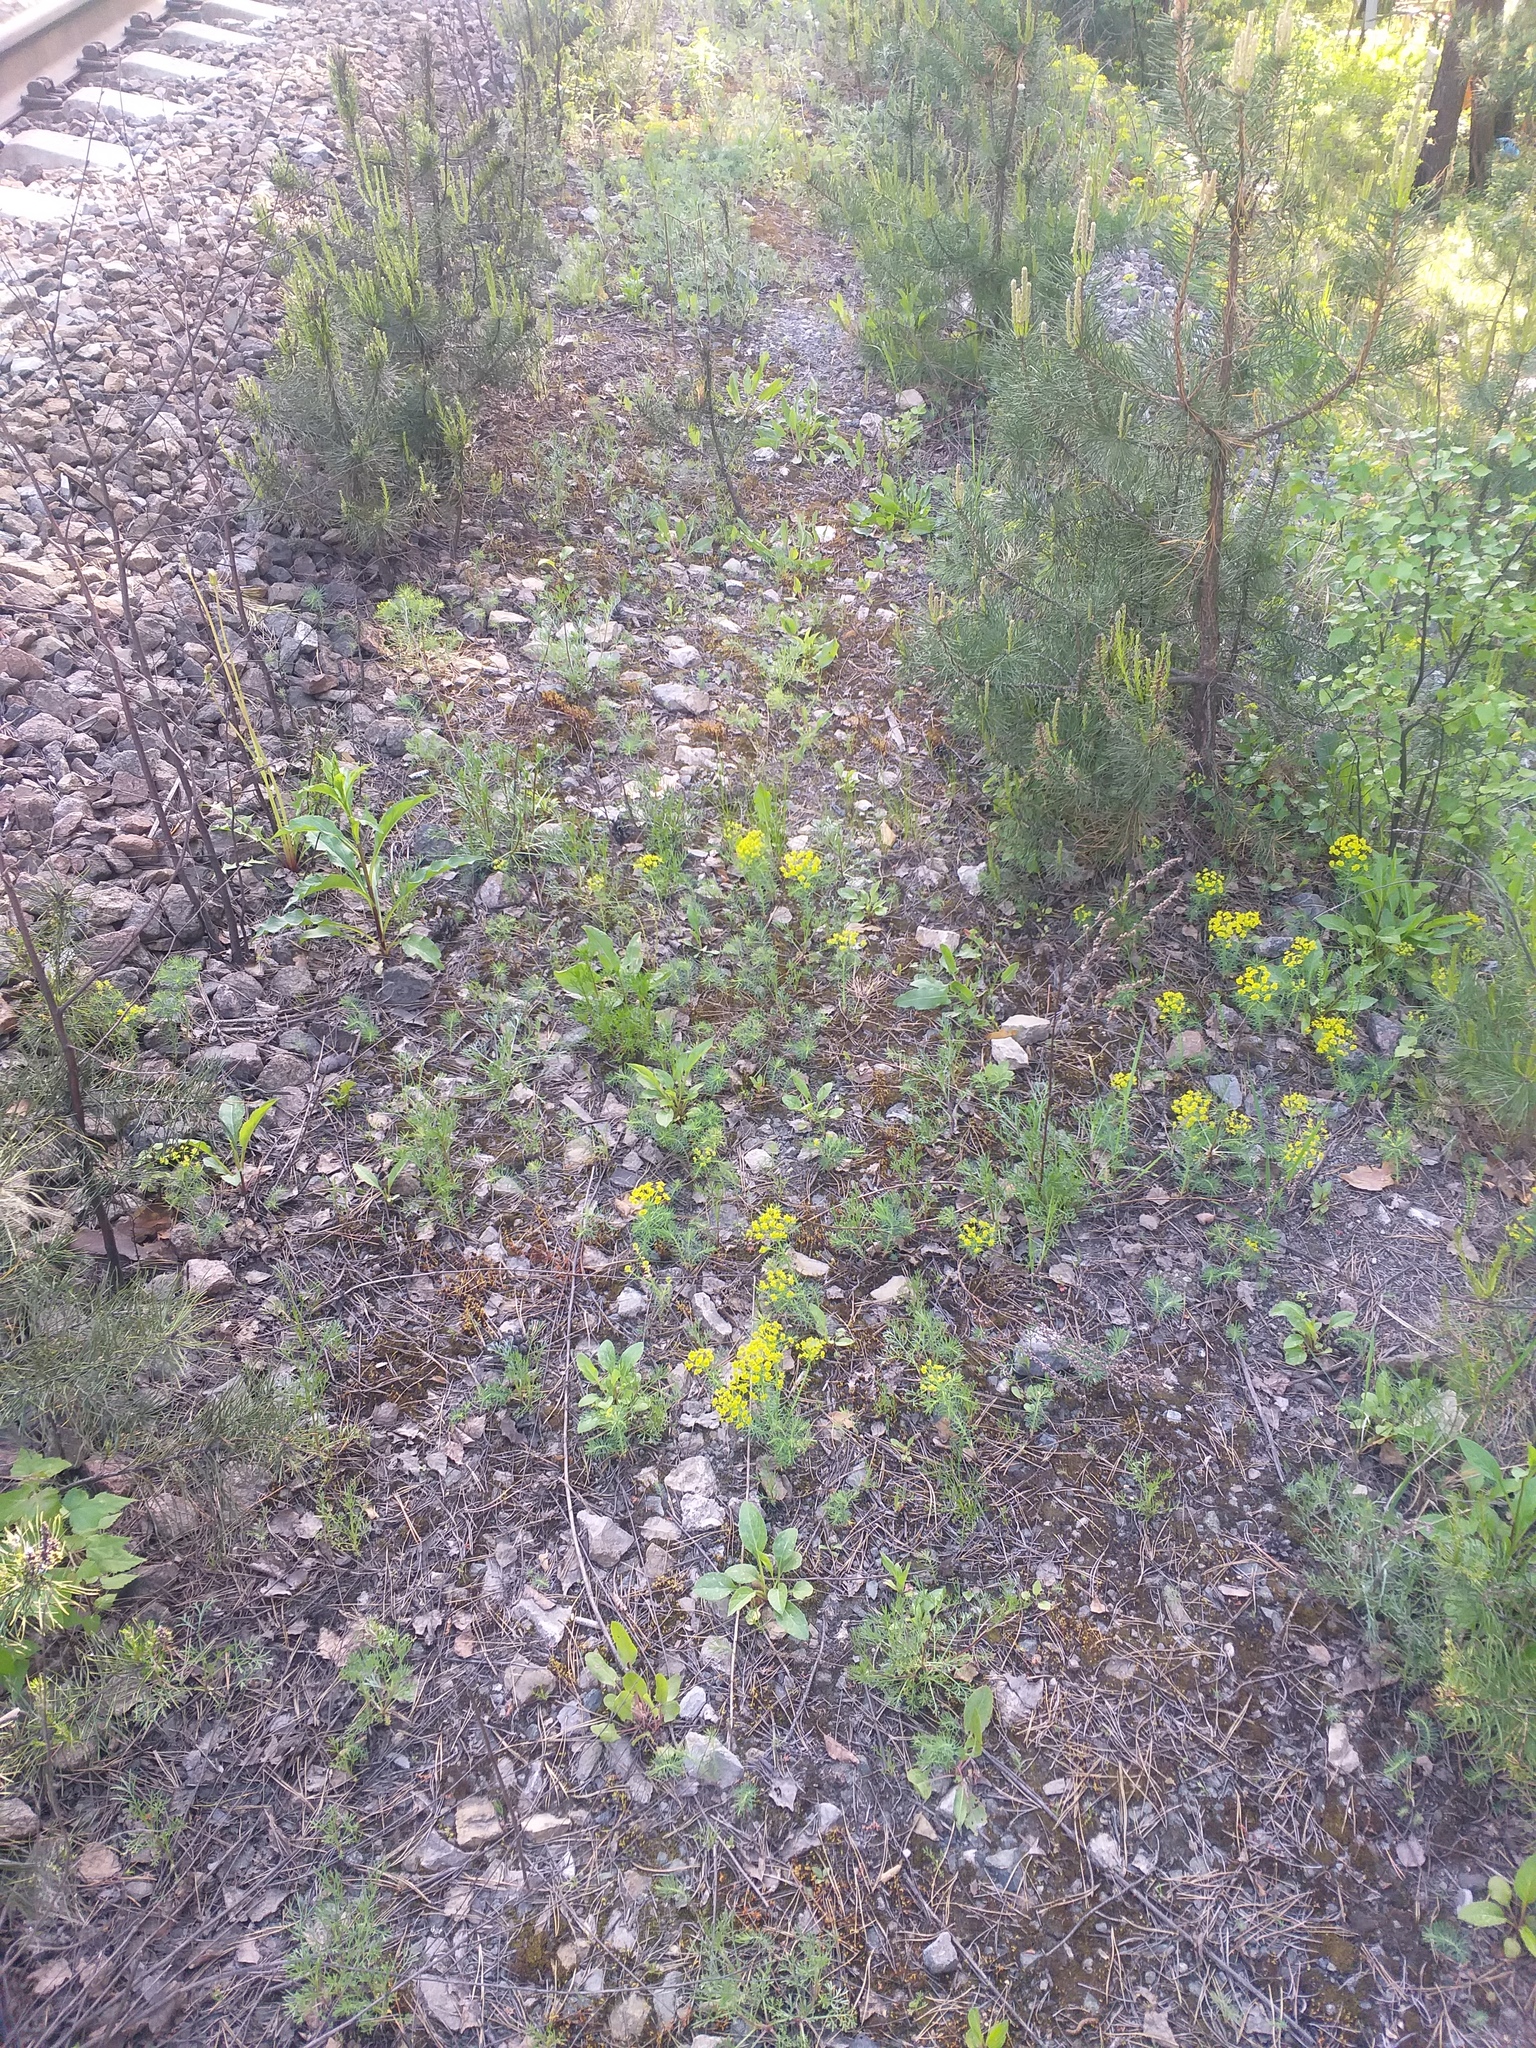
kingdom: Plantae
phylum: Tracheophyta
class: Magnoliopsida
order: Malpighiales
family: Euphorbiaceae
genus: Euphorbia
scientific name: Euphorbia cyparissias
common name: Cypress spurge
